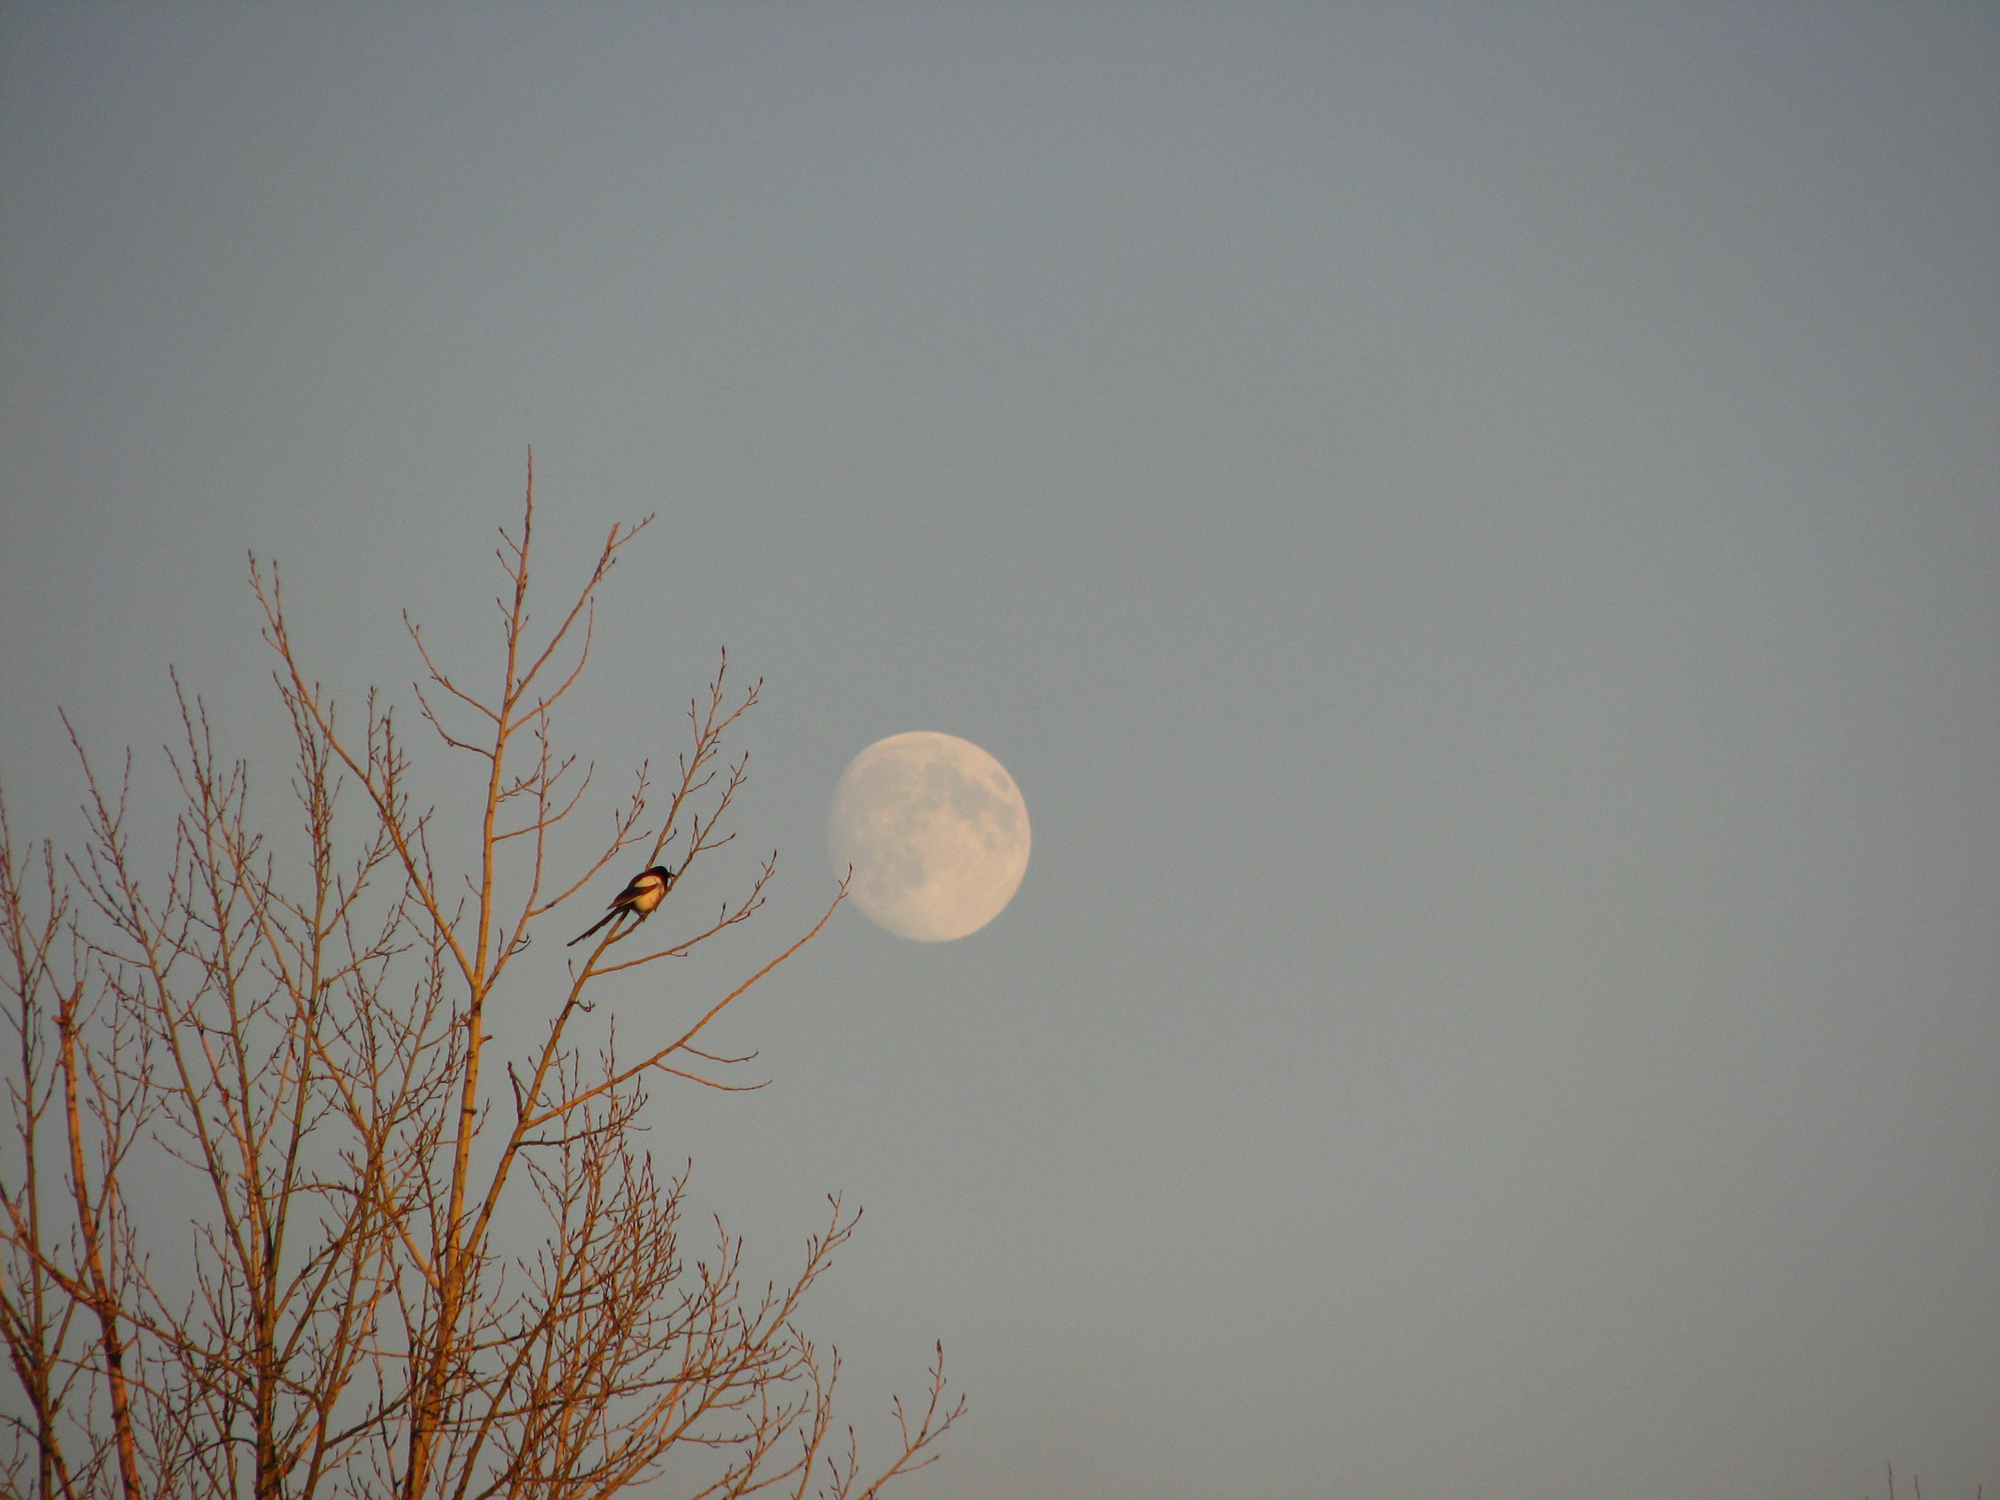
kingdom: Animalia
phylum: Chordata
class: Aves
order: Passeriformes
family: Corvidae
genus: Pica
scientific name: Pica pica
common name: Eurasian magpie
